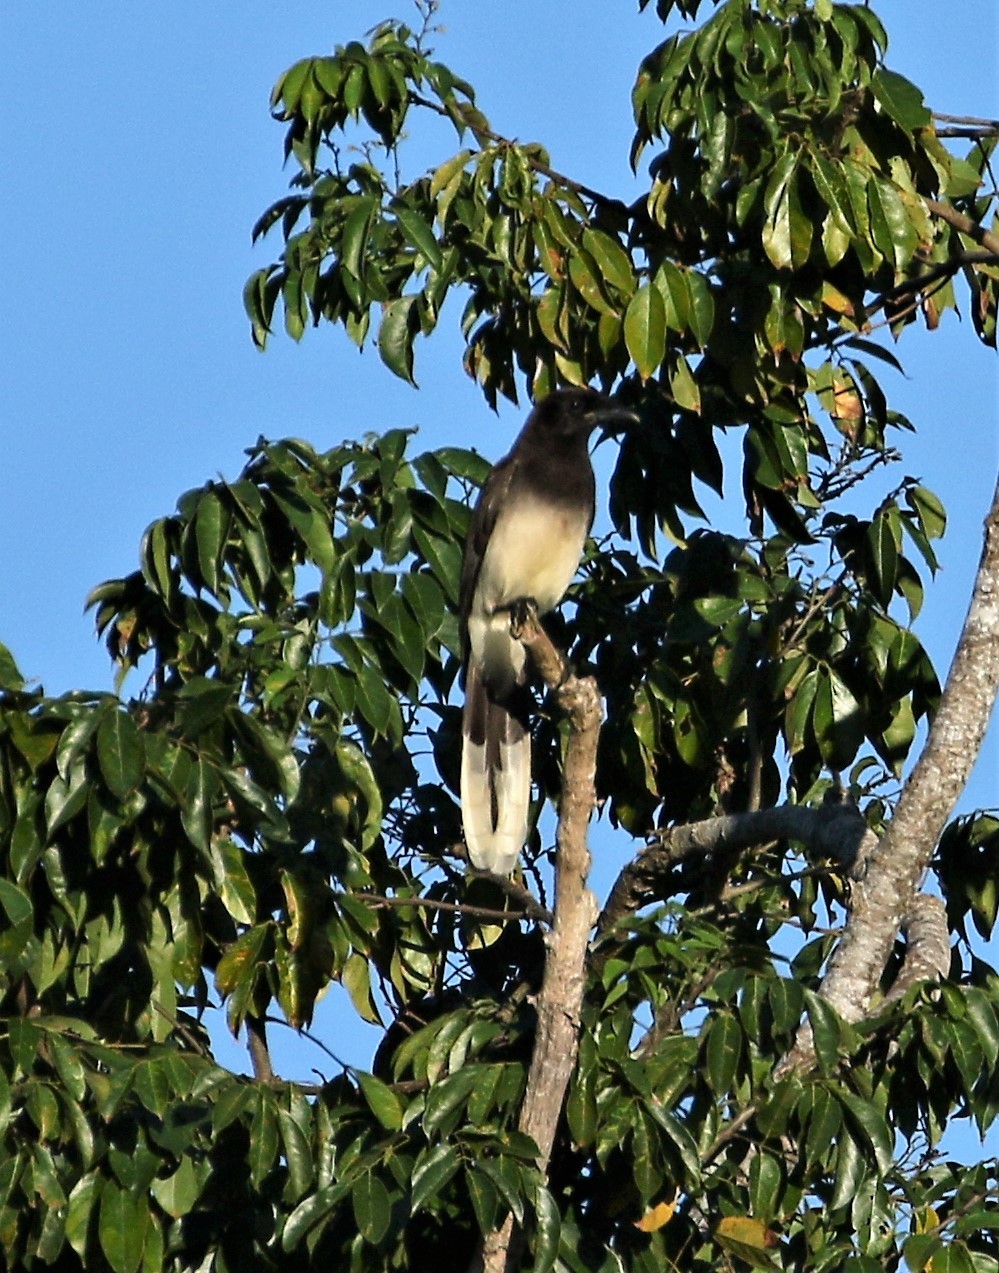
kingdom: Animalia
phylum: Chordata
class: Aves
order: Passeriformes
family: Corvidae
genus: Psilorhinus
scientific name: Psilorhinus morio
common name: Brown jay
